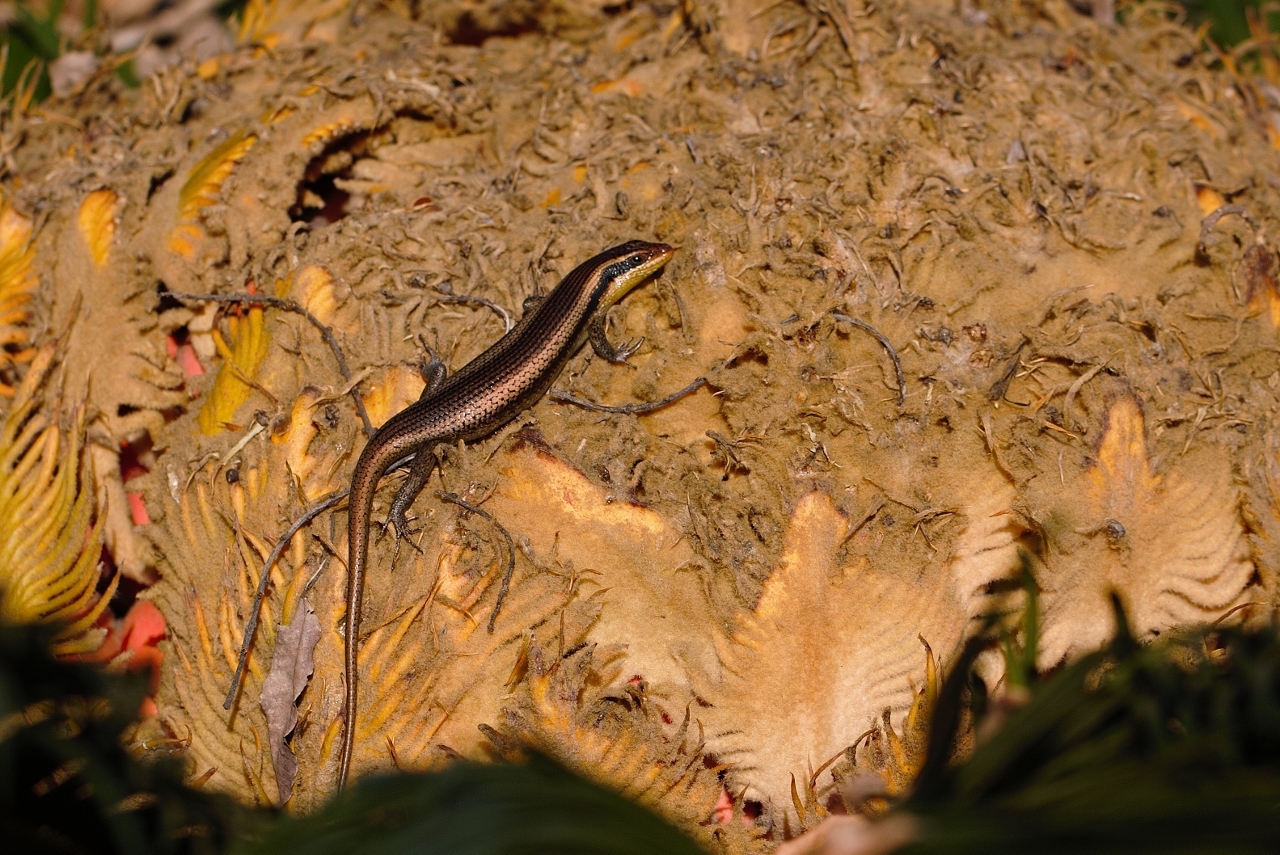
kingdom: Animalia
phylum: Chordata
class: Squamata
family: Scincidae
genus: Trachylepis
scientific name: Trachylepis wahlbergii
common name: Wahlberg’s striped skink
